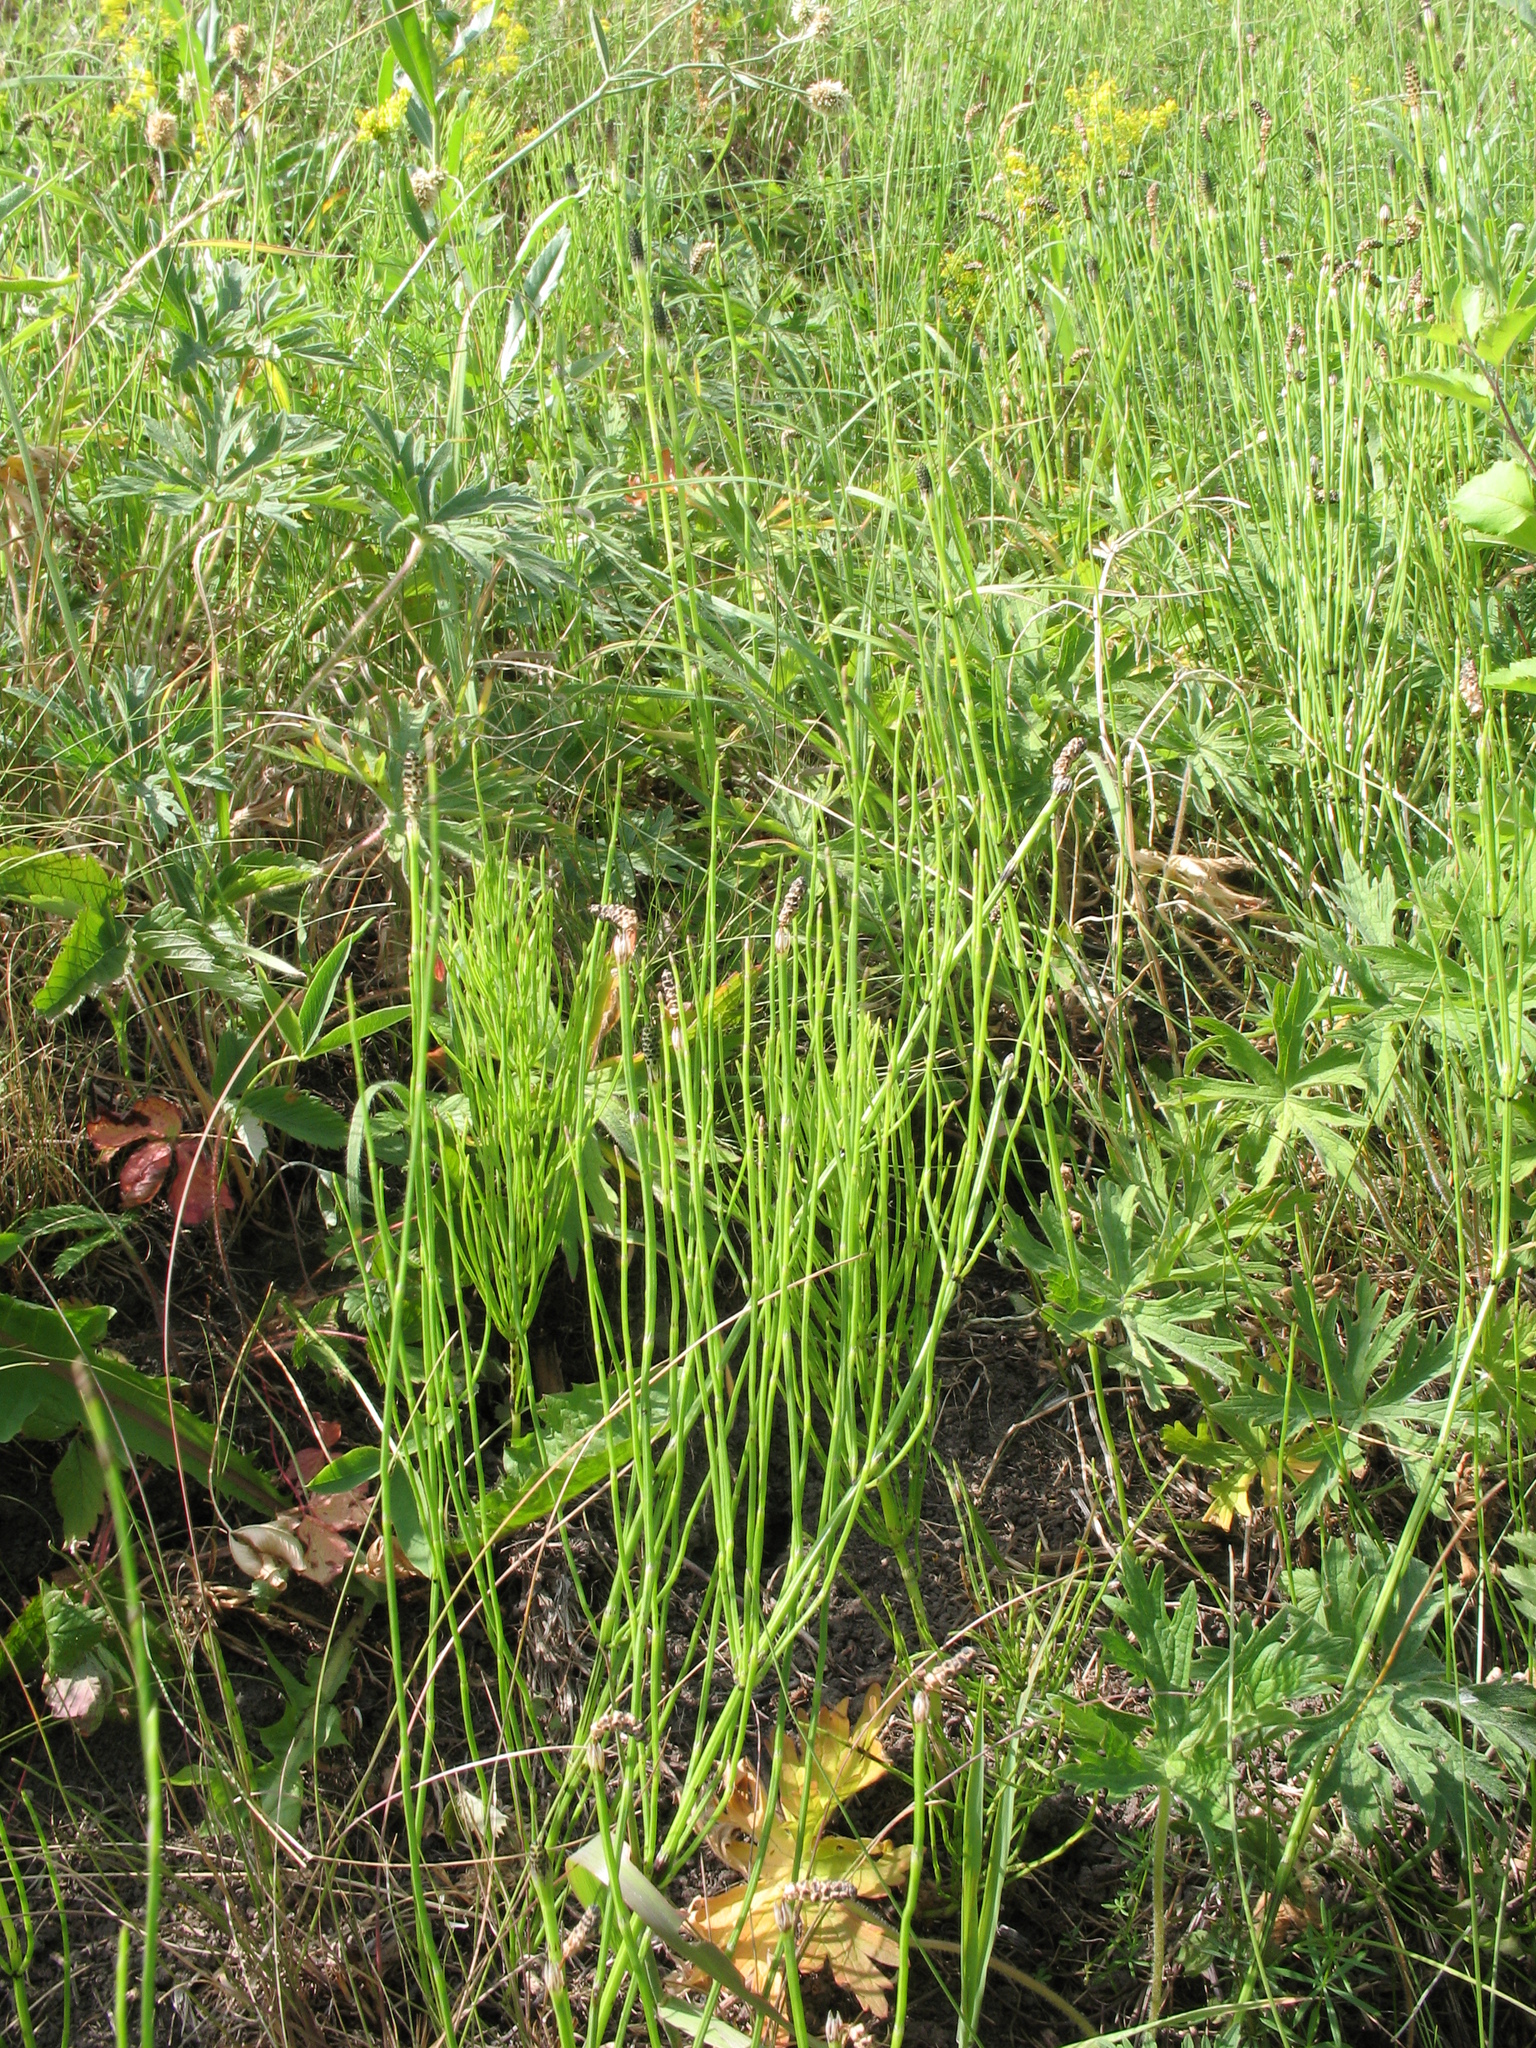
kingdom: Plantae
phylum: Tracheophyta
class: Polypodiopsida
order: Equisetales
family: Equisetaceae
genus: Equisetum
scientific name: Equisetum palustre
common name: Marsh horsetail
